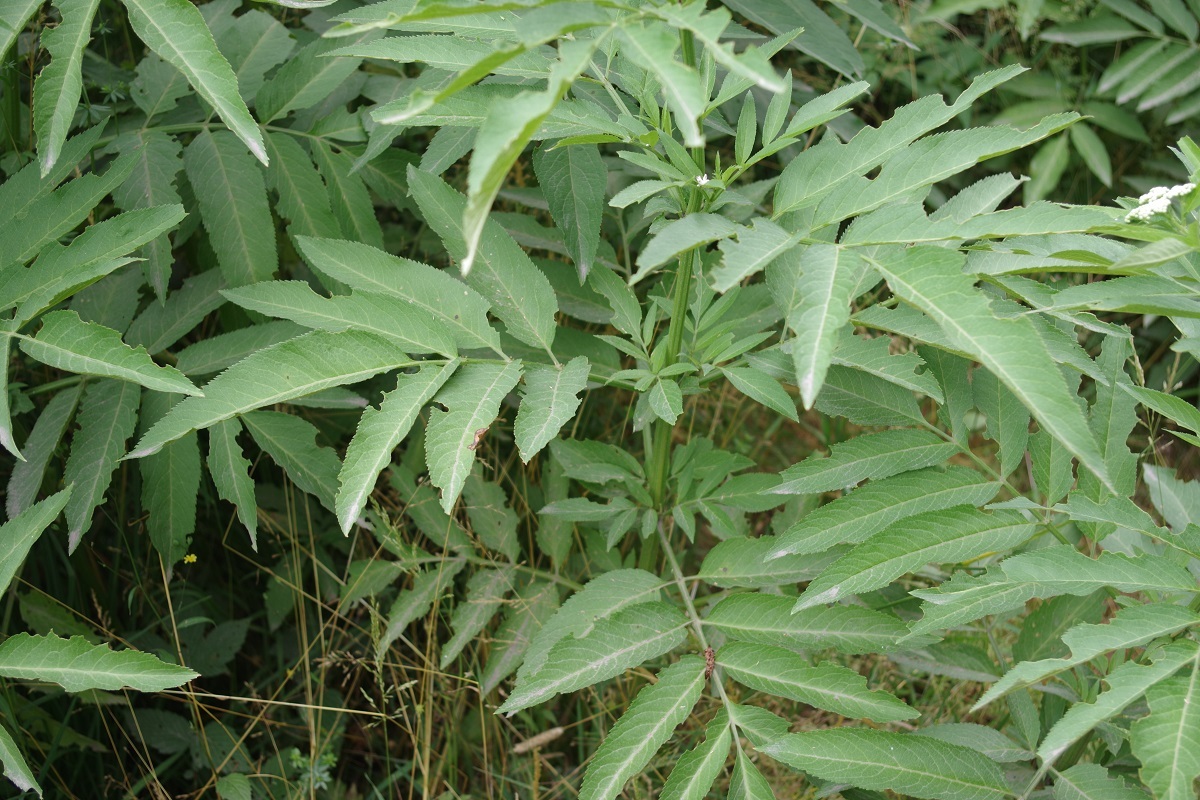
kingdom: Plantae
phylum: Tracheophyta
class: Magnoliopsida
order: Dipsacales
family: Viburnaceae
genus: Sambucus
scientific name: Sambucus ebulus
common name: Dwarf elder
